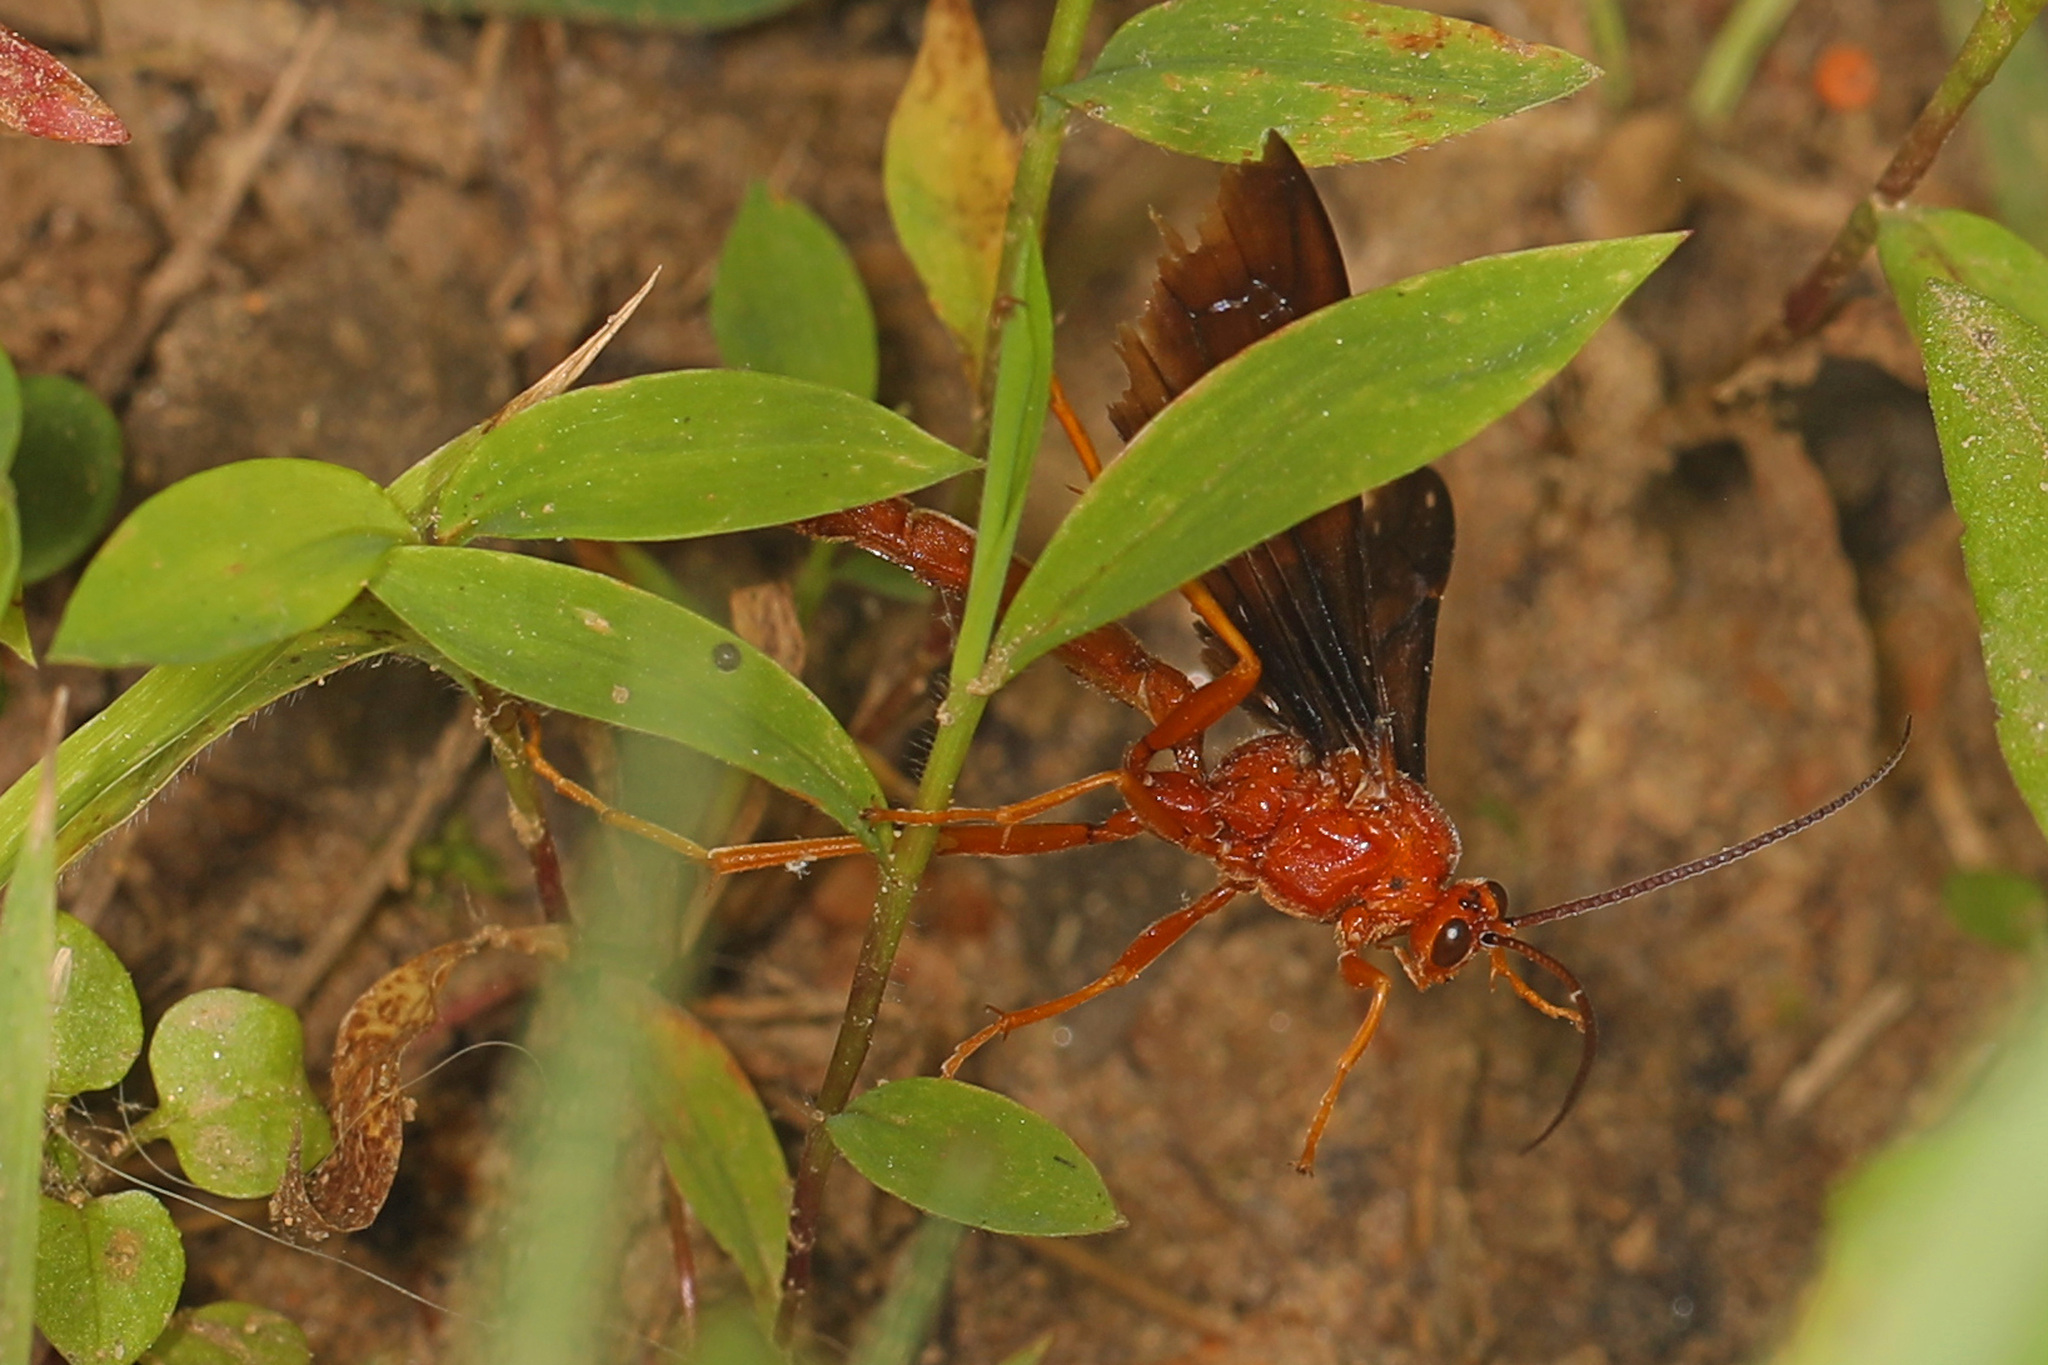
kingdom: Animalia
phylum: Arthropoda
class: Insecta
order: Hymenoptera
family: Ichneumonidae
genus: Trogus
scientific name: Trogus pennator
